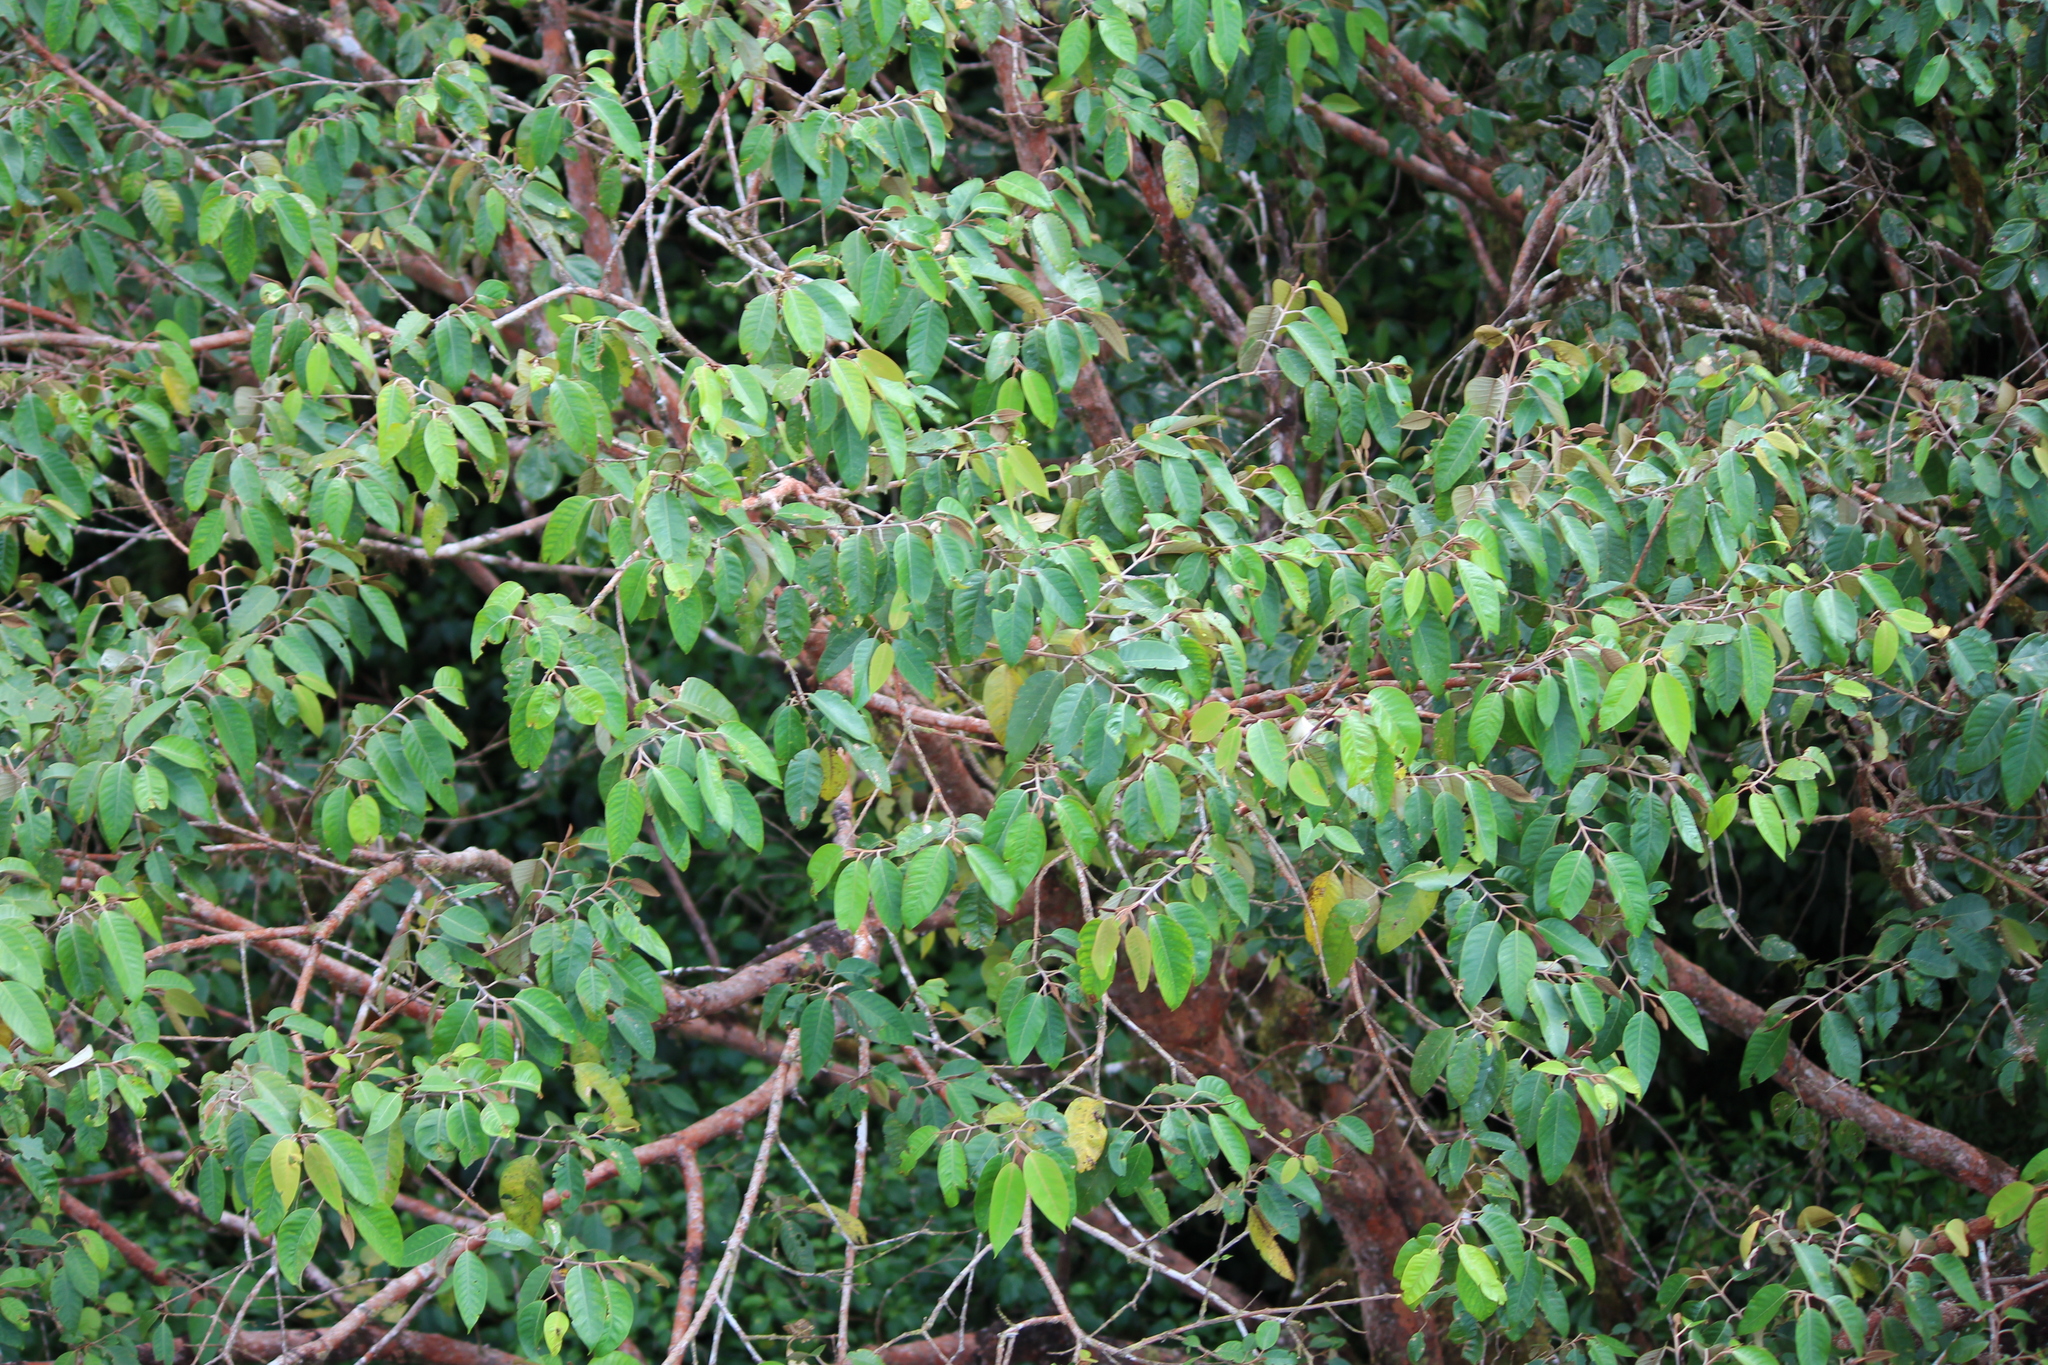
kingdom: Plantae
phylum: Tracheophyta
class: Magnoliopsida
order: Malpighiales
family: Hypericaceae
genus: Vismia
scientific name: Vismia baccifera
